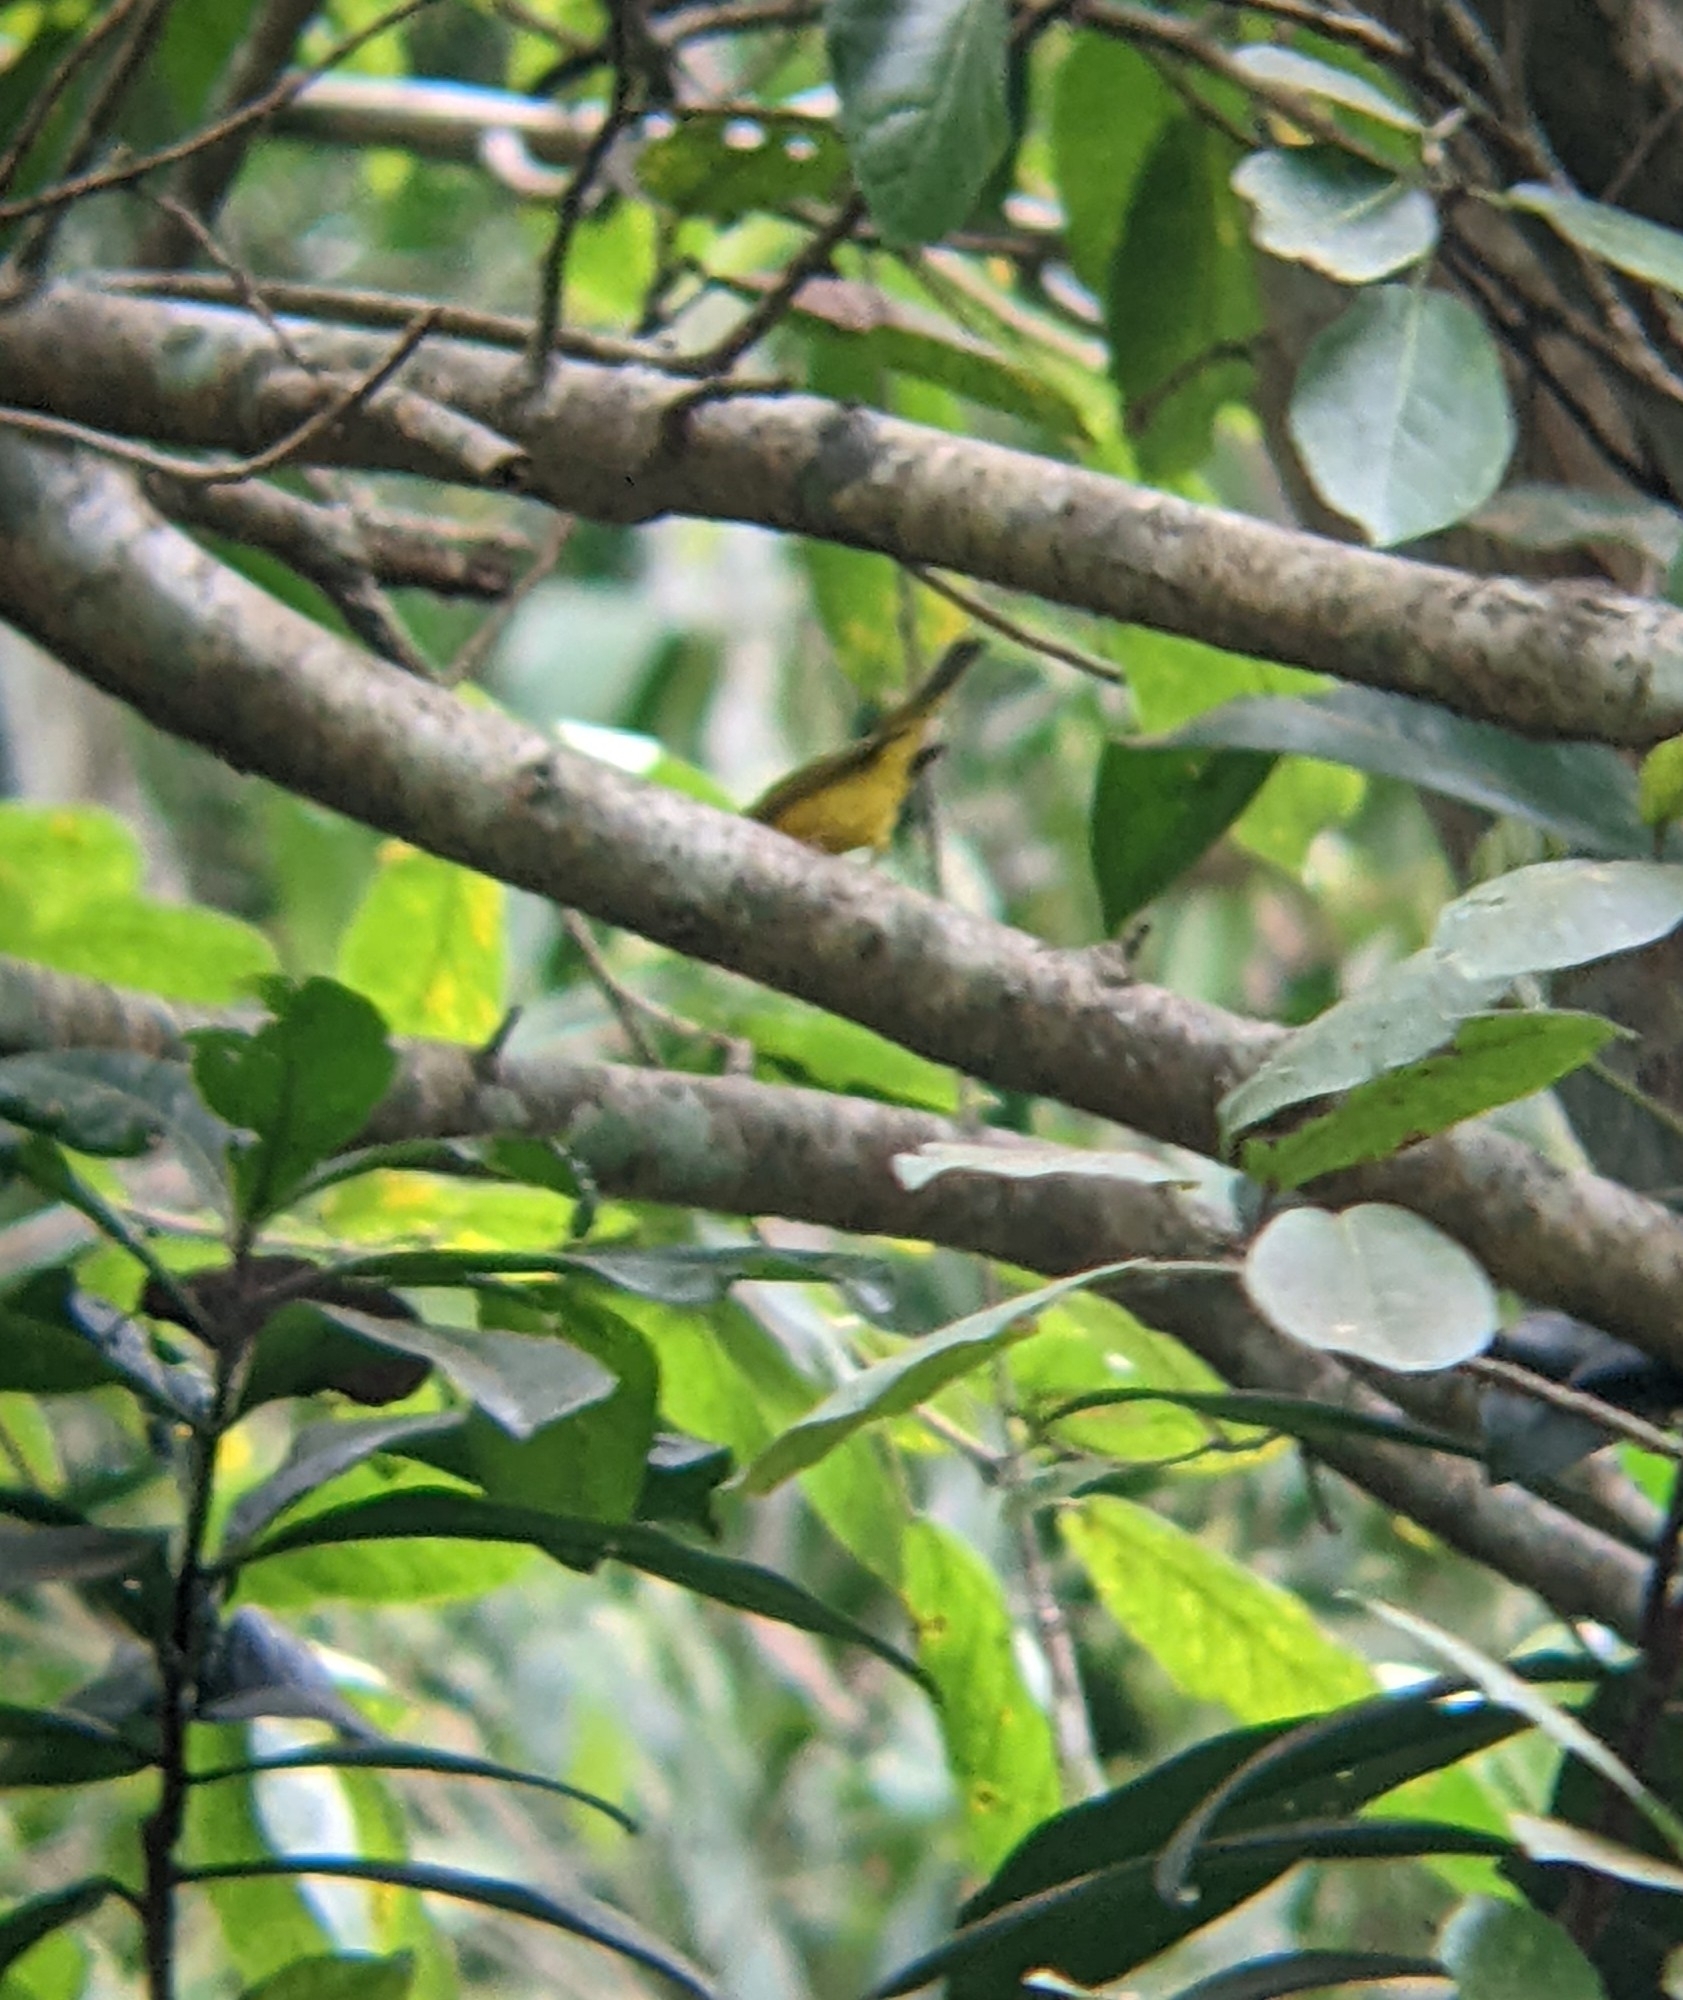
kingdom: Animalia
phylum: Chordata
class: Aves
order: Passeriformes
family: Parulidae
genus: Cardellina
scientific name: Cardellina pusilla
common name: Wilson's warbler
